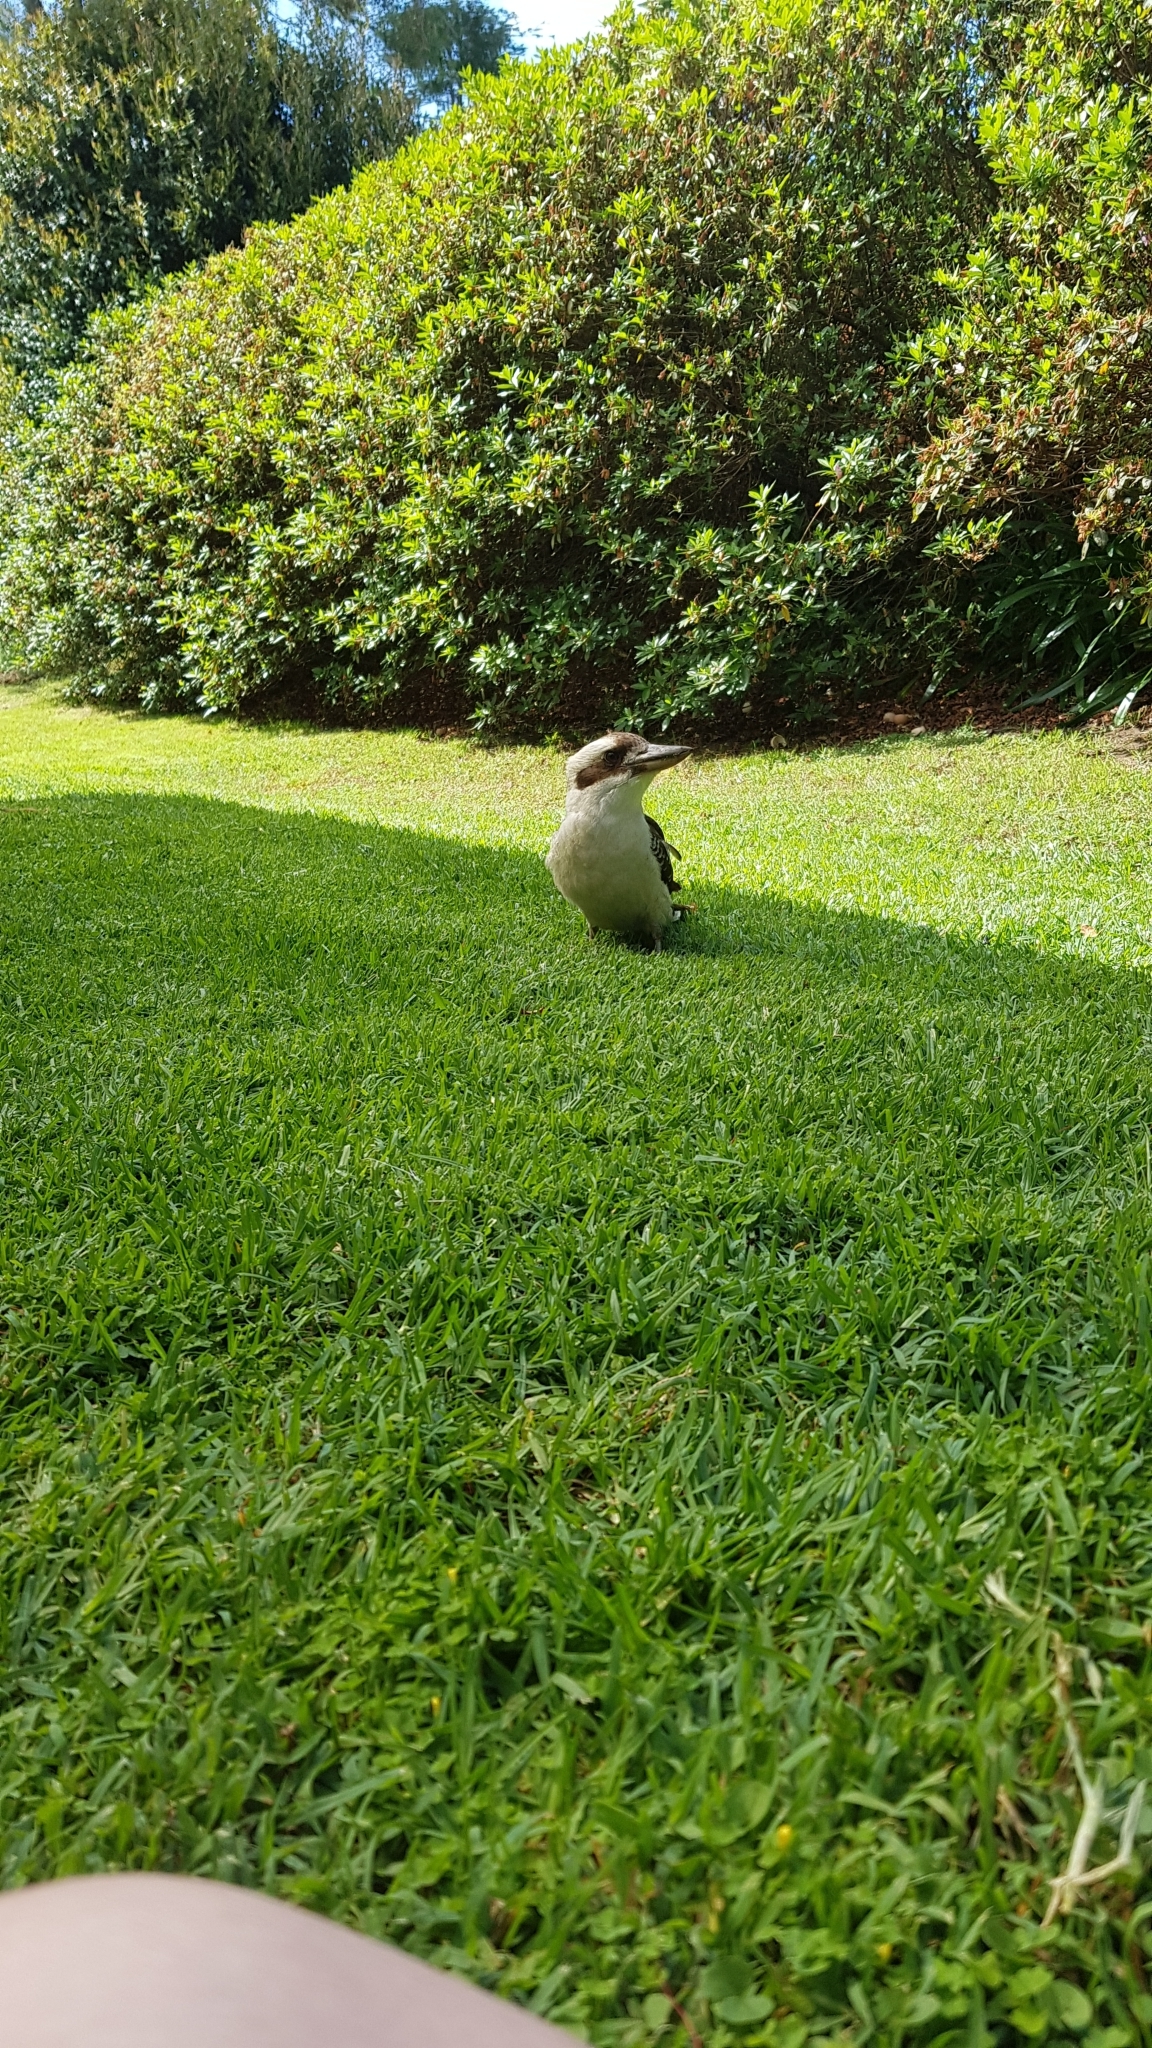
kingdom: Animalia
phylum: Chordata
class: Aves
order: Coraciiformes
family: Alcedinidae
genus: Dacelo
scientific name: Dacelo novaeguineae
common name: Laughing kookaburra
